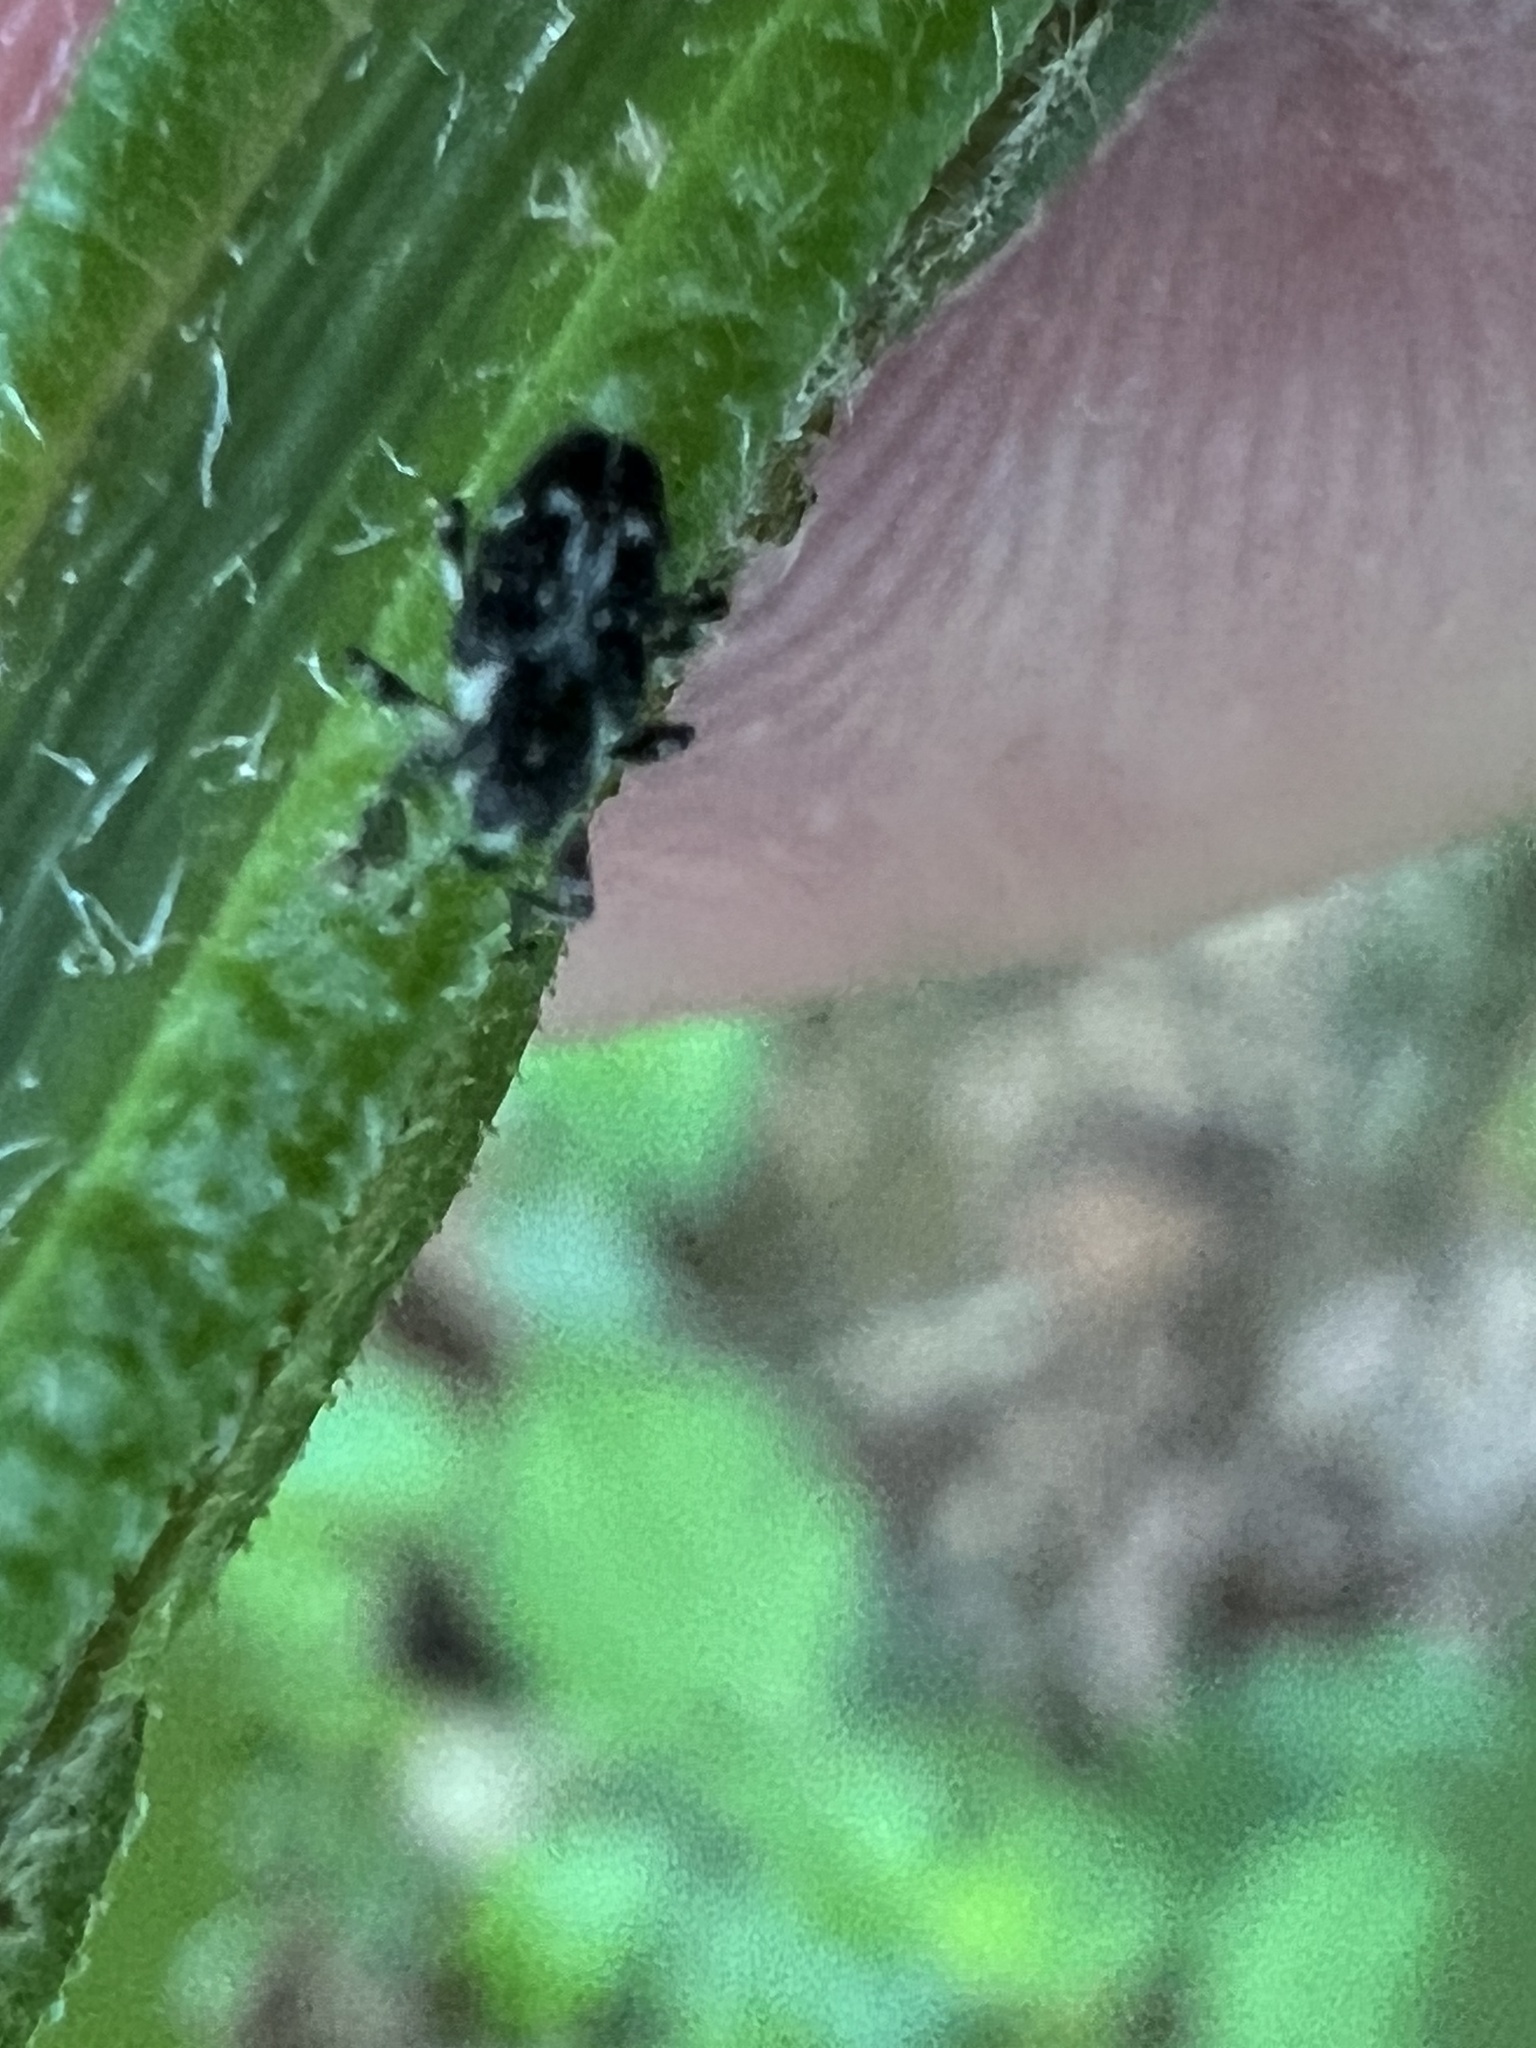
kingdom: Animalia
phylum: Arthropoda
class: Insecta
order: Coleoptera
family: Curculionidae
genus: Cylindrocopturus
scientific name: Cylindrocopturus quercus
